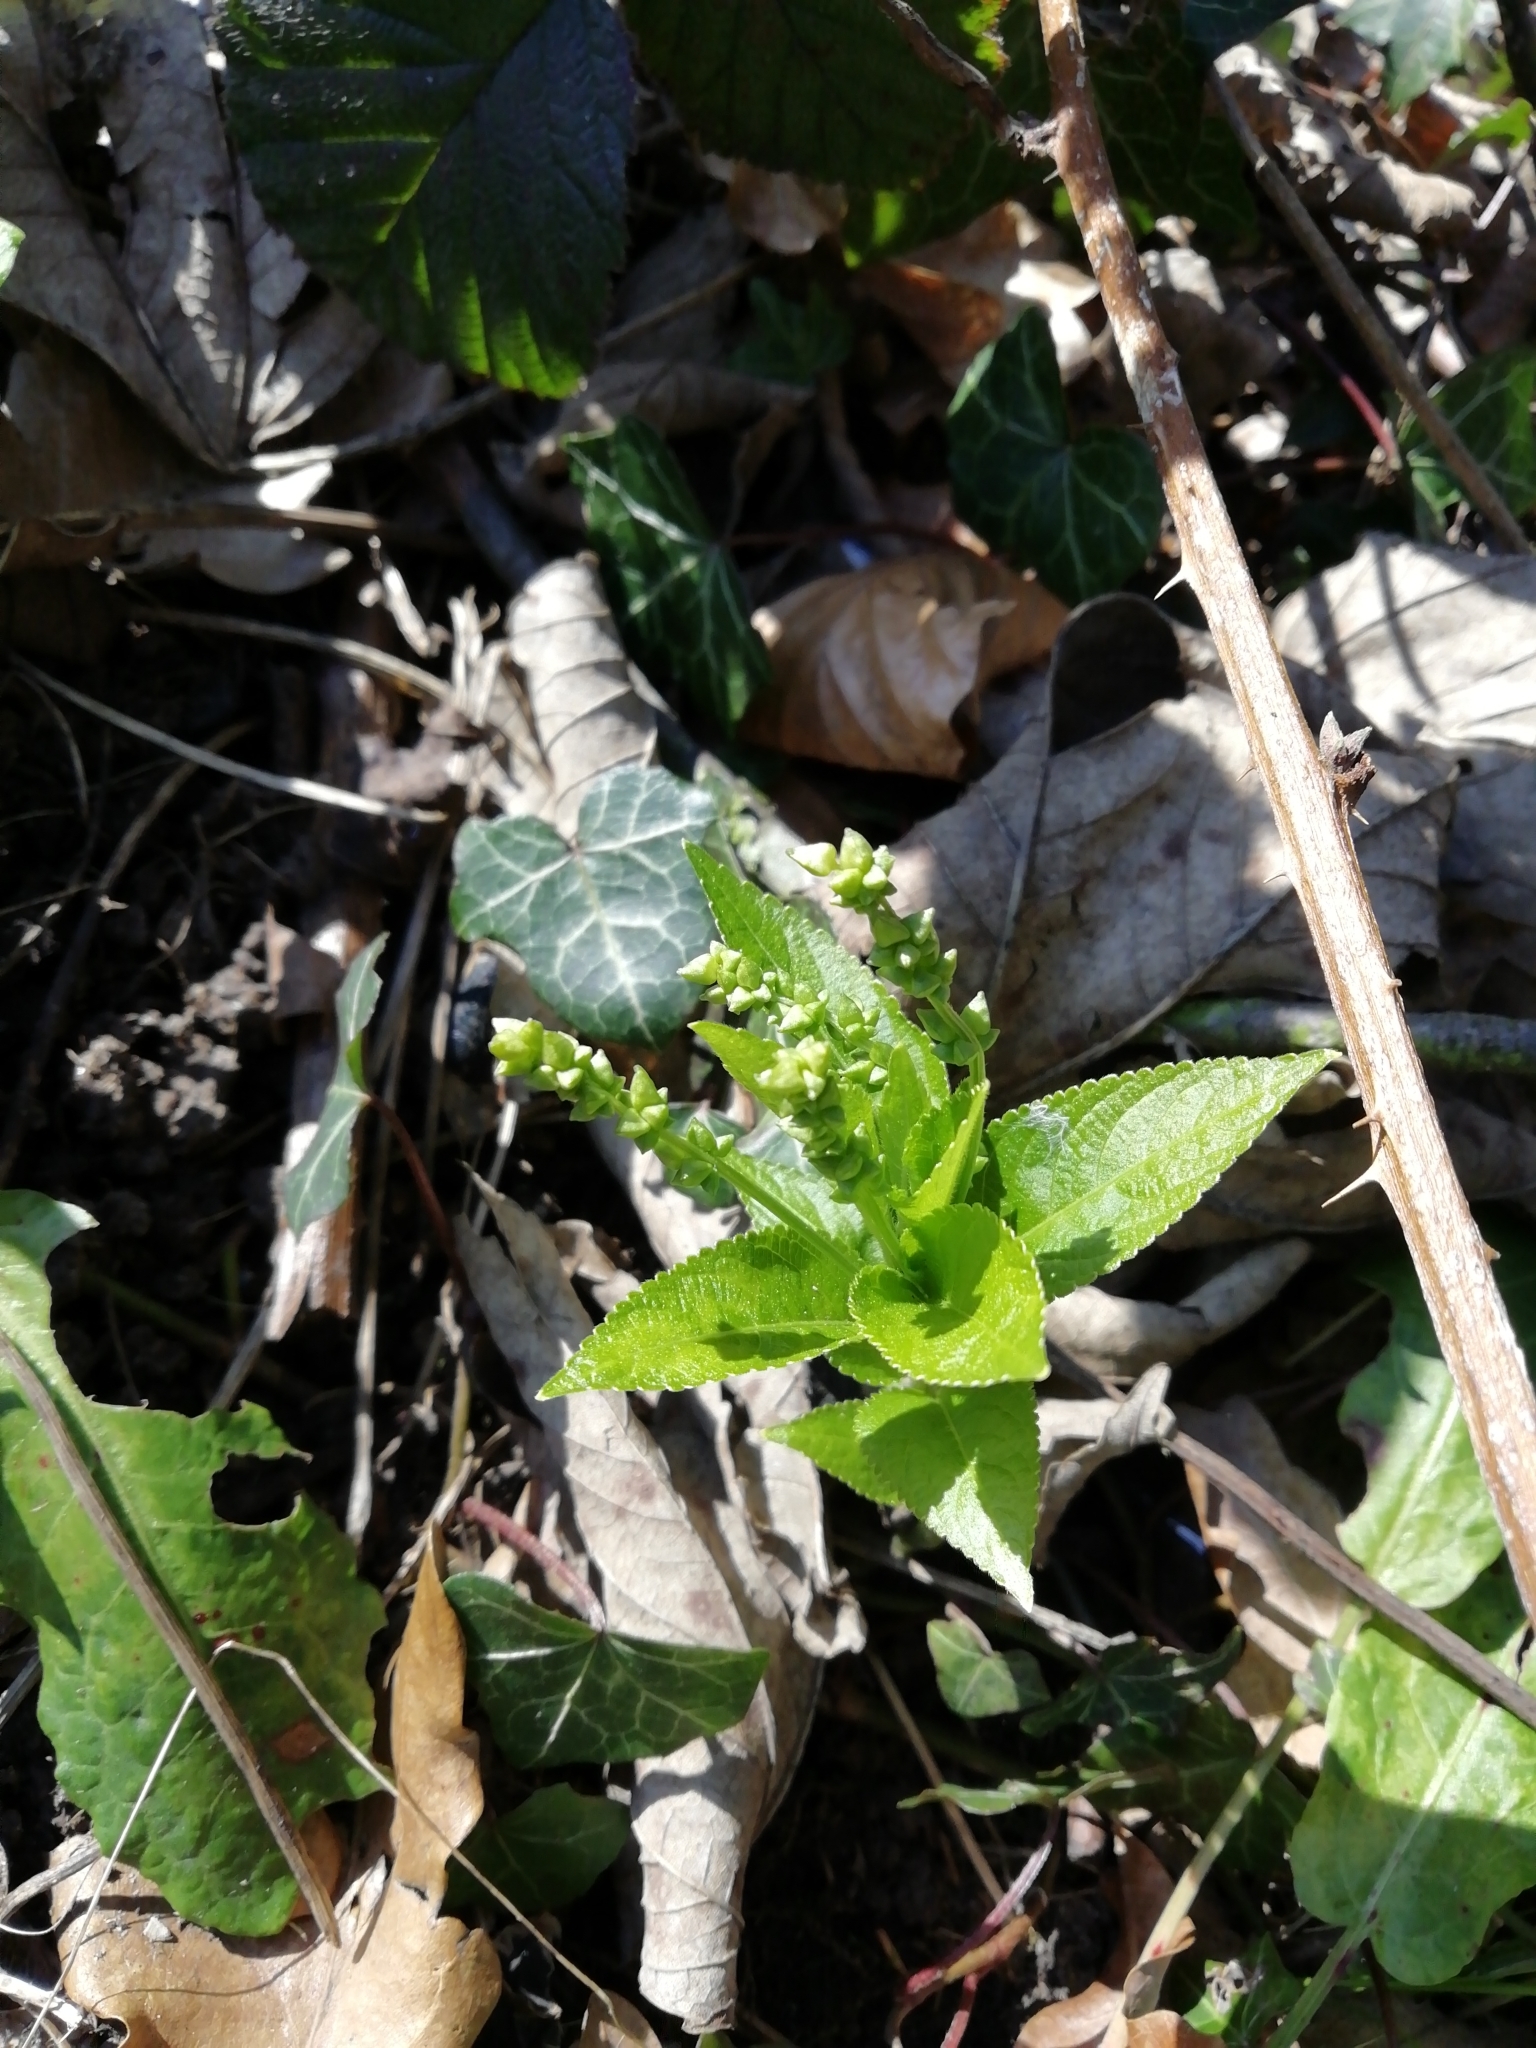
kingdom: Plantae
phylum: Tracheophyta
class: Magnoliopsida
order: Malpighiales
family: Euphorbiaceae
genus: Mercurialis
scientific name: Mercurialis perennis
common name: Dog mercury
